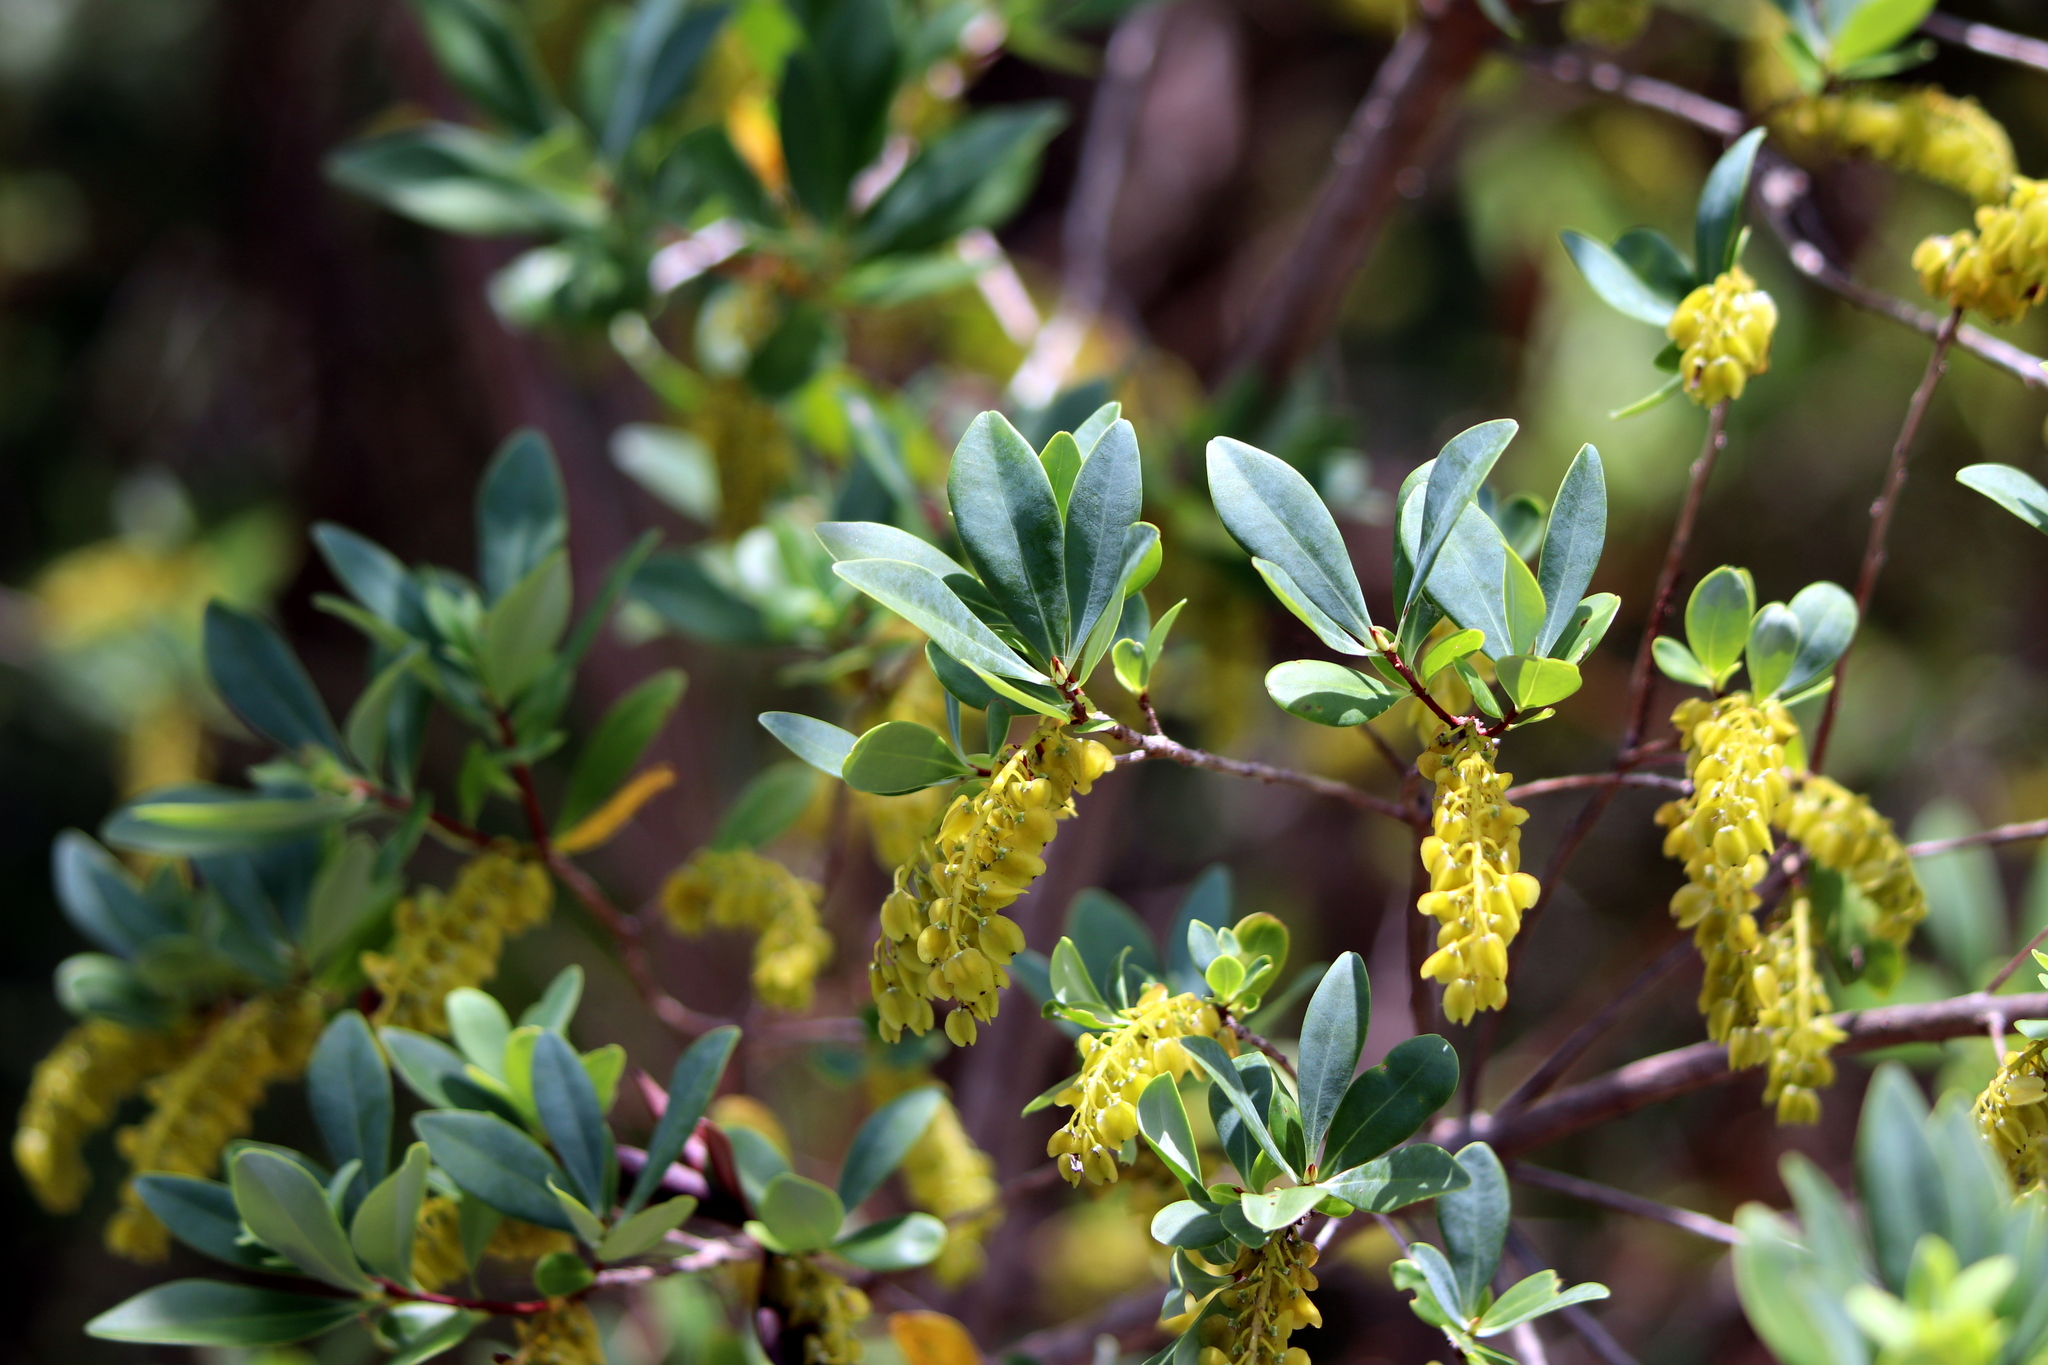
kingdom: Plantae
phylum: Tracheophyta
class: Magnoliopsida
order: Ericales
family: Cyrillaceae
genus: Cliftonia
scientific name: Cliftonia monophylla
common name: Titi
